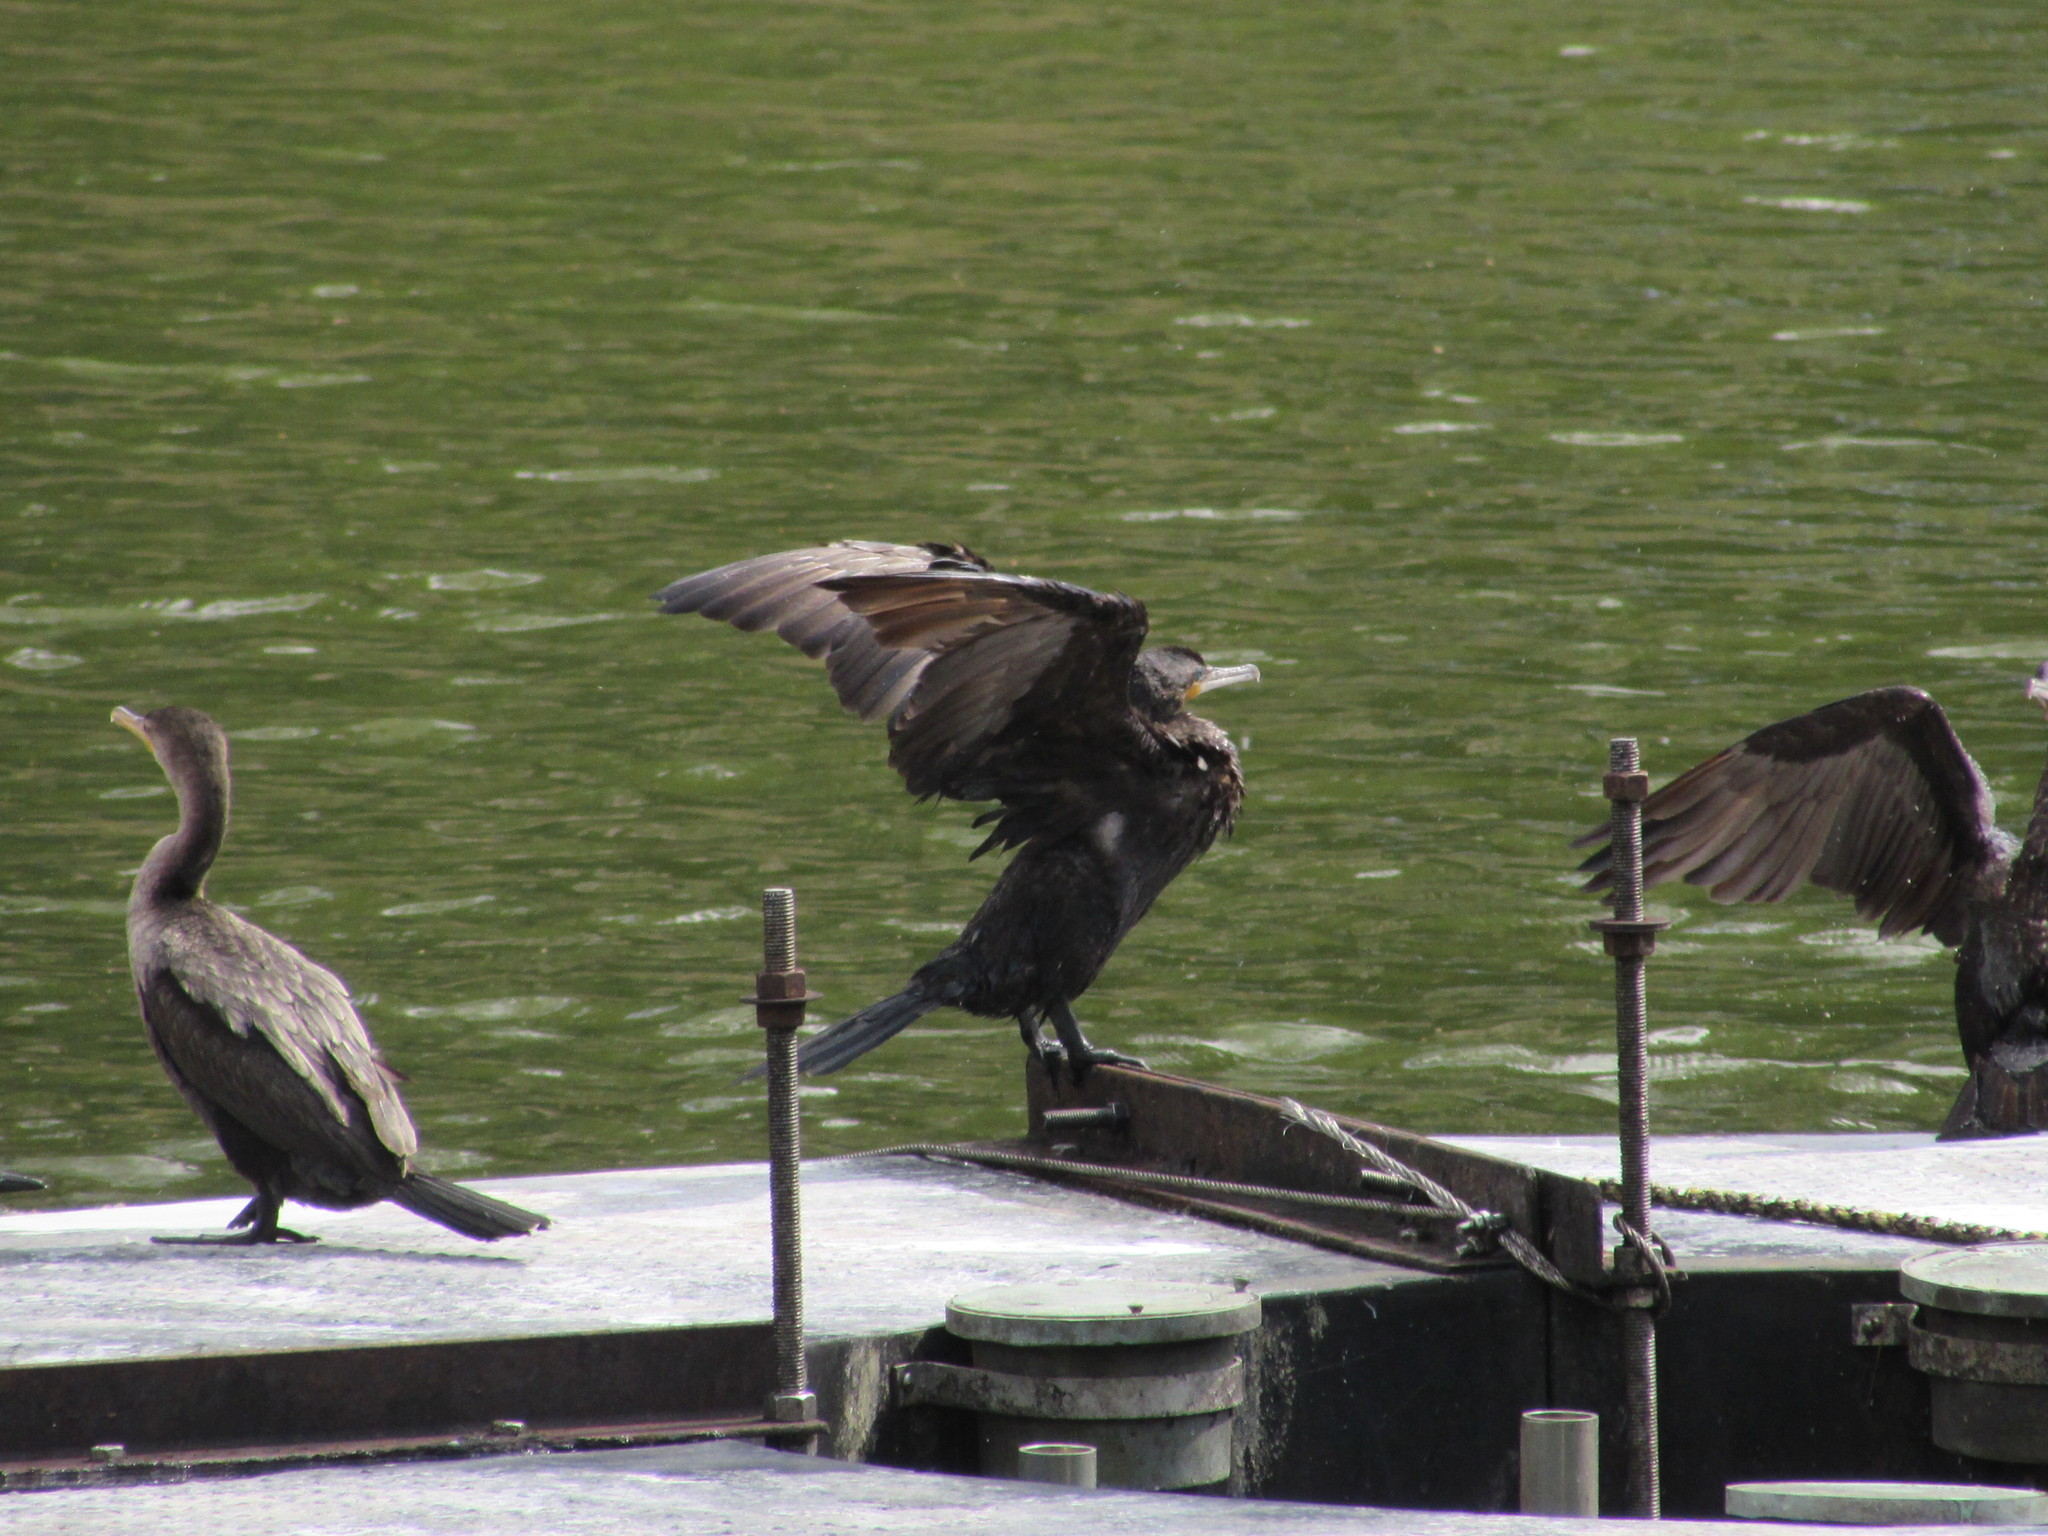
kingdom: Animalia
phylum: Chordata
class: Aves
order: Suliformes
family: Phalacrocoracidae
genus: Phalacrocorax
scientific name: Phalacrocorax auritus
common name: Double-crested cormorant
